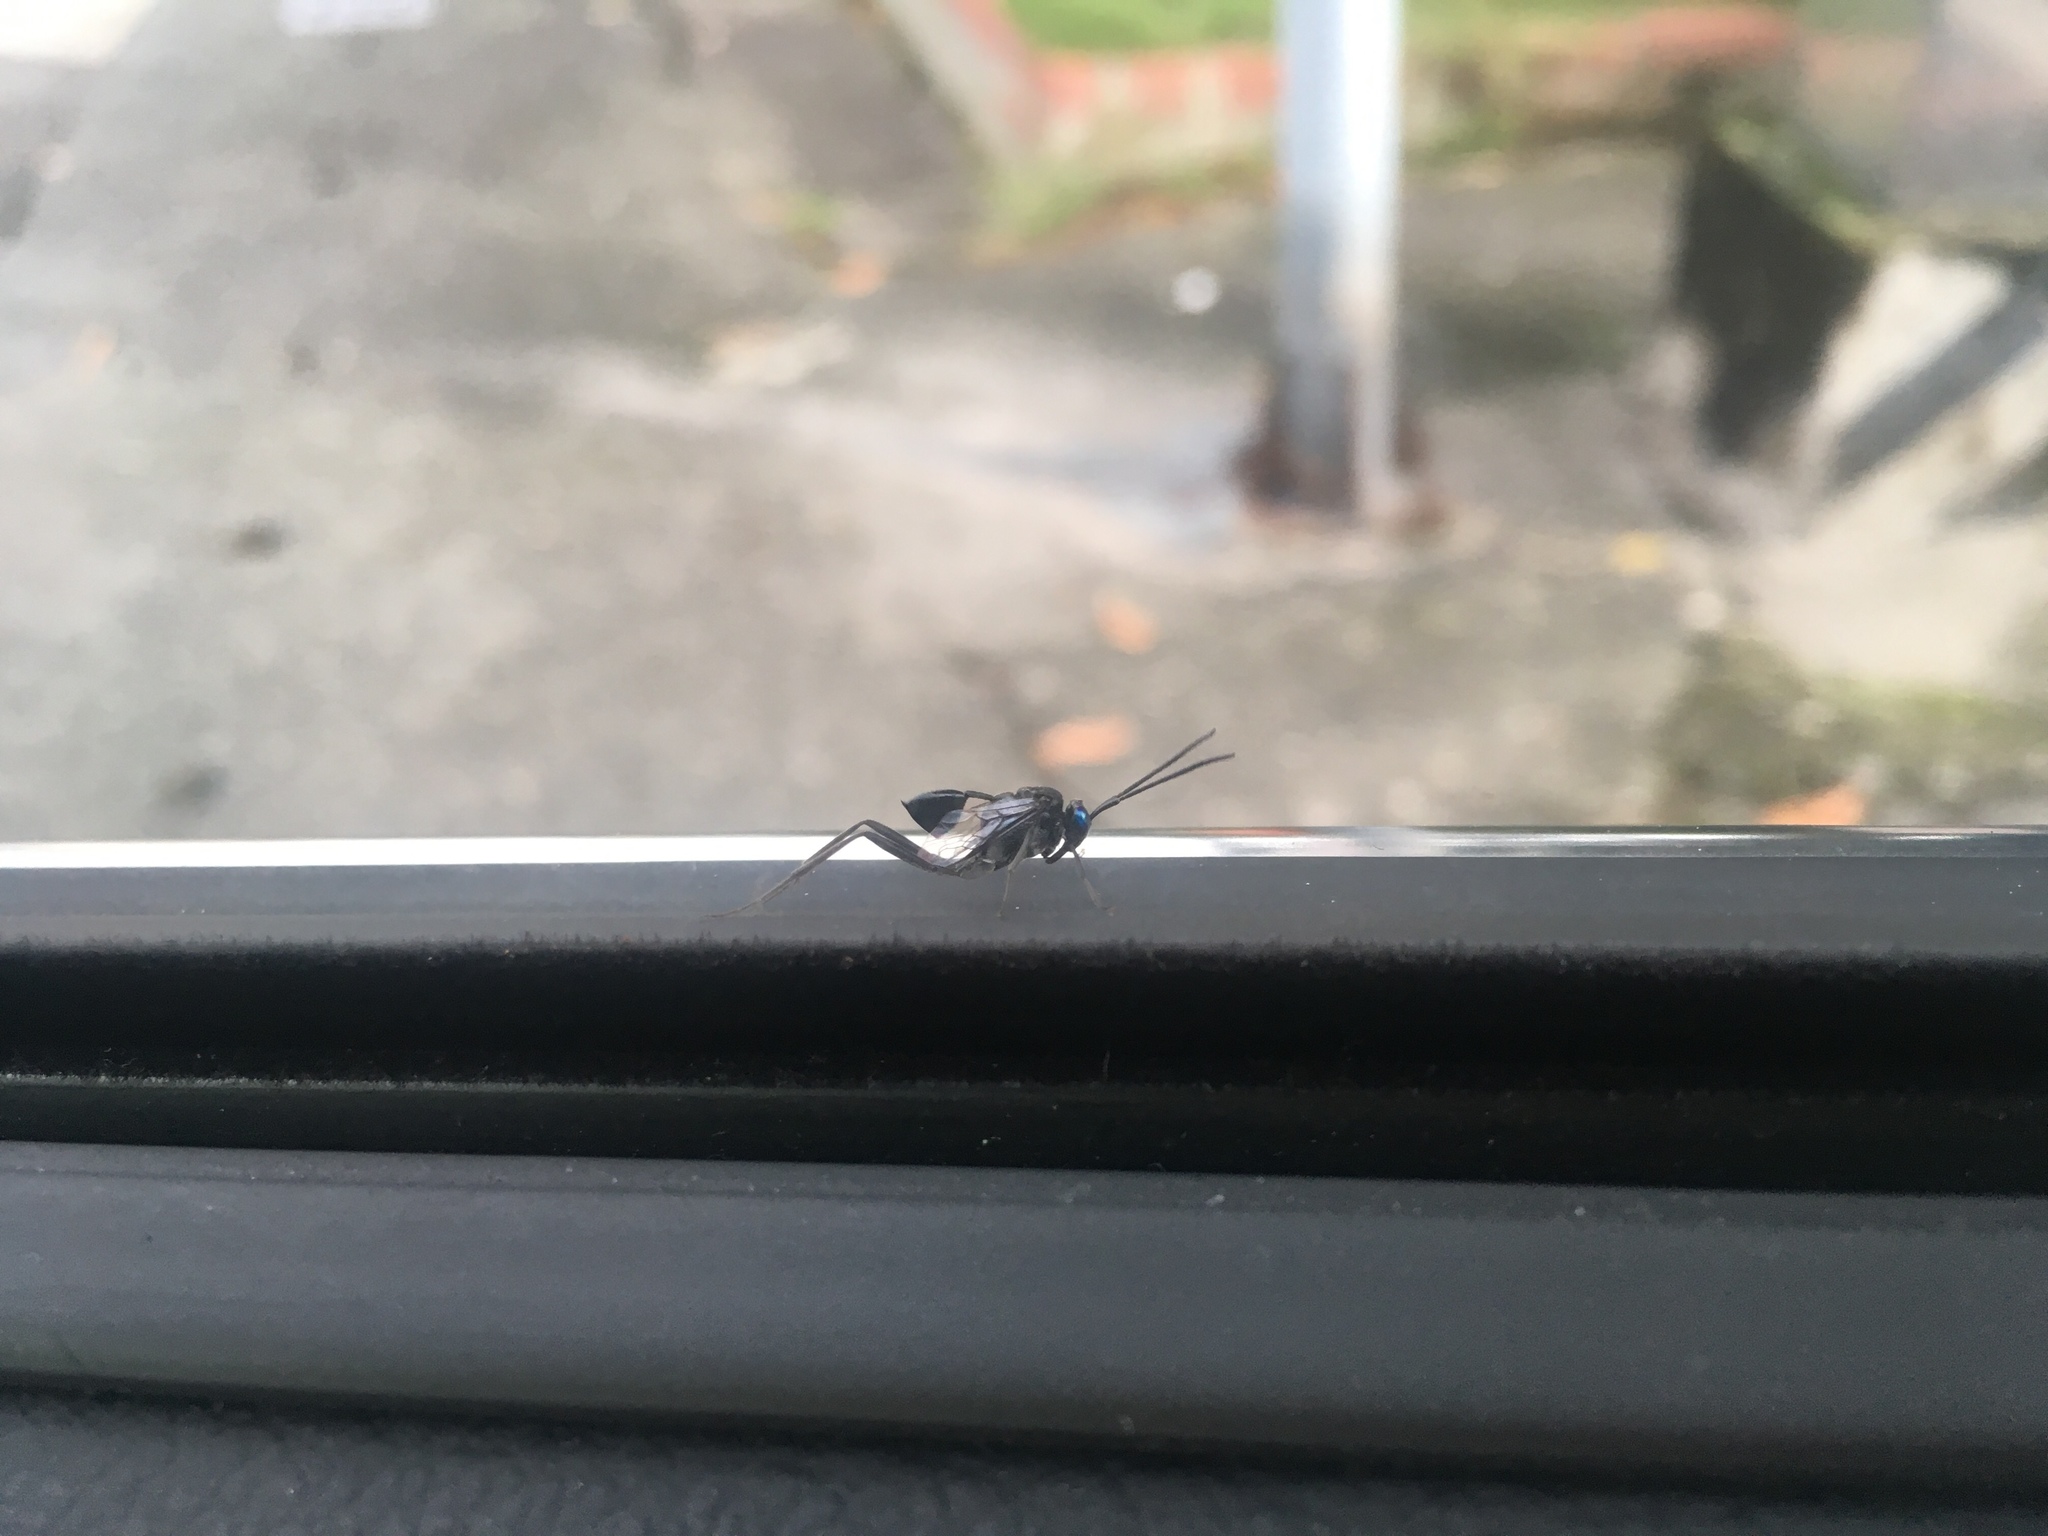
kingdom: Animalia
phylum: Arthropoda
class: Insecta
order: Hymenoptera
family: Evaniidae
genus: Evania
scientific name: Evania appendigaster
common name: Ensign wasp
